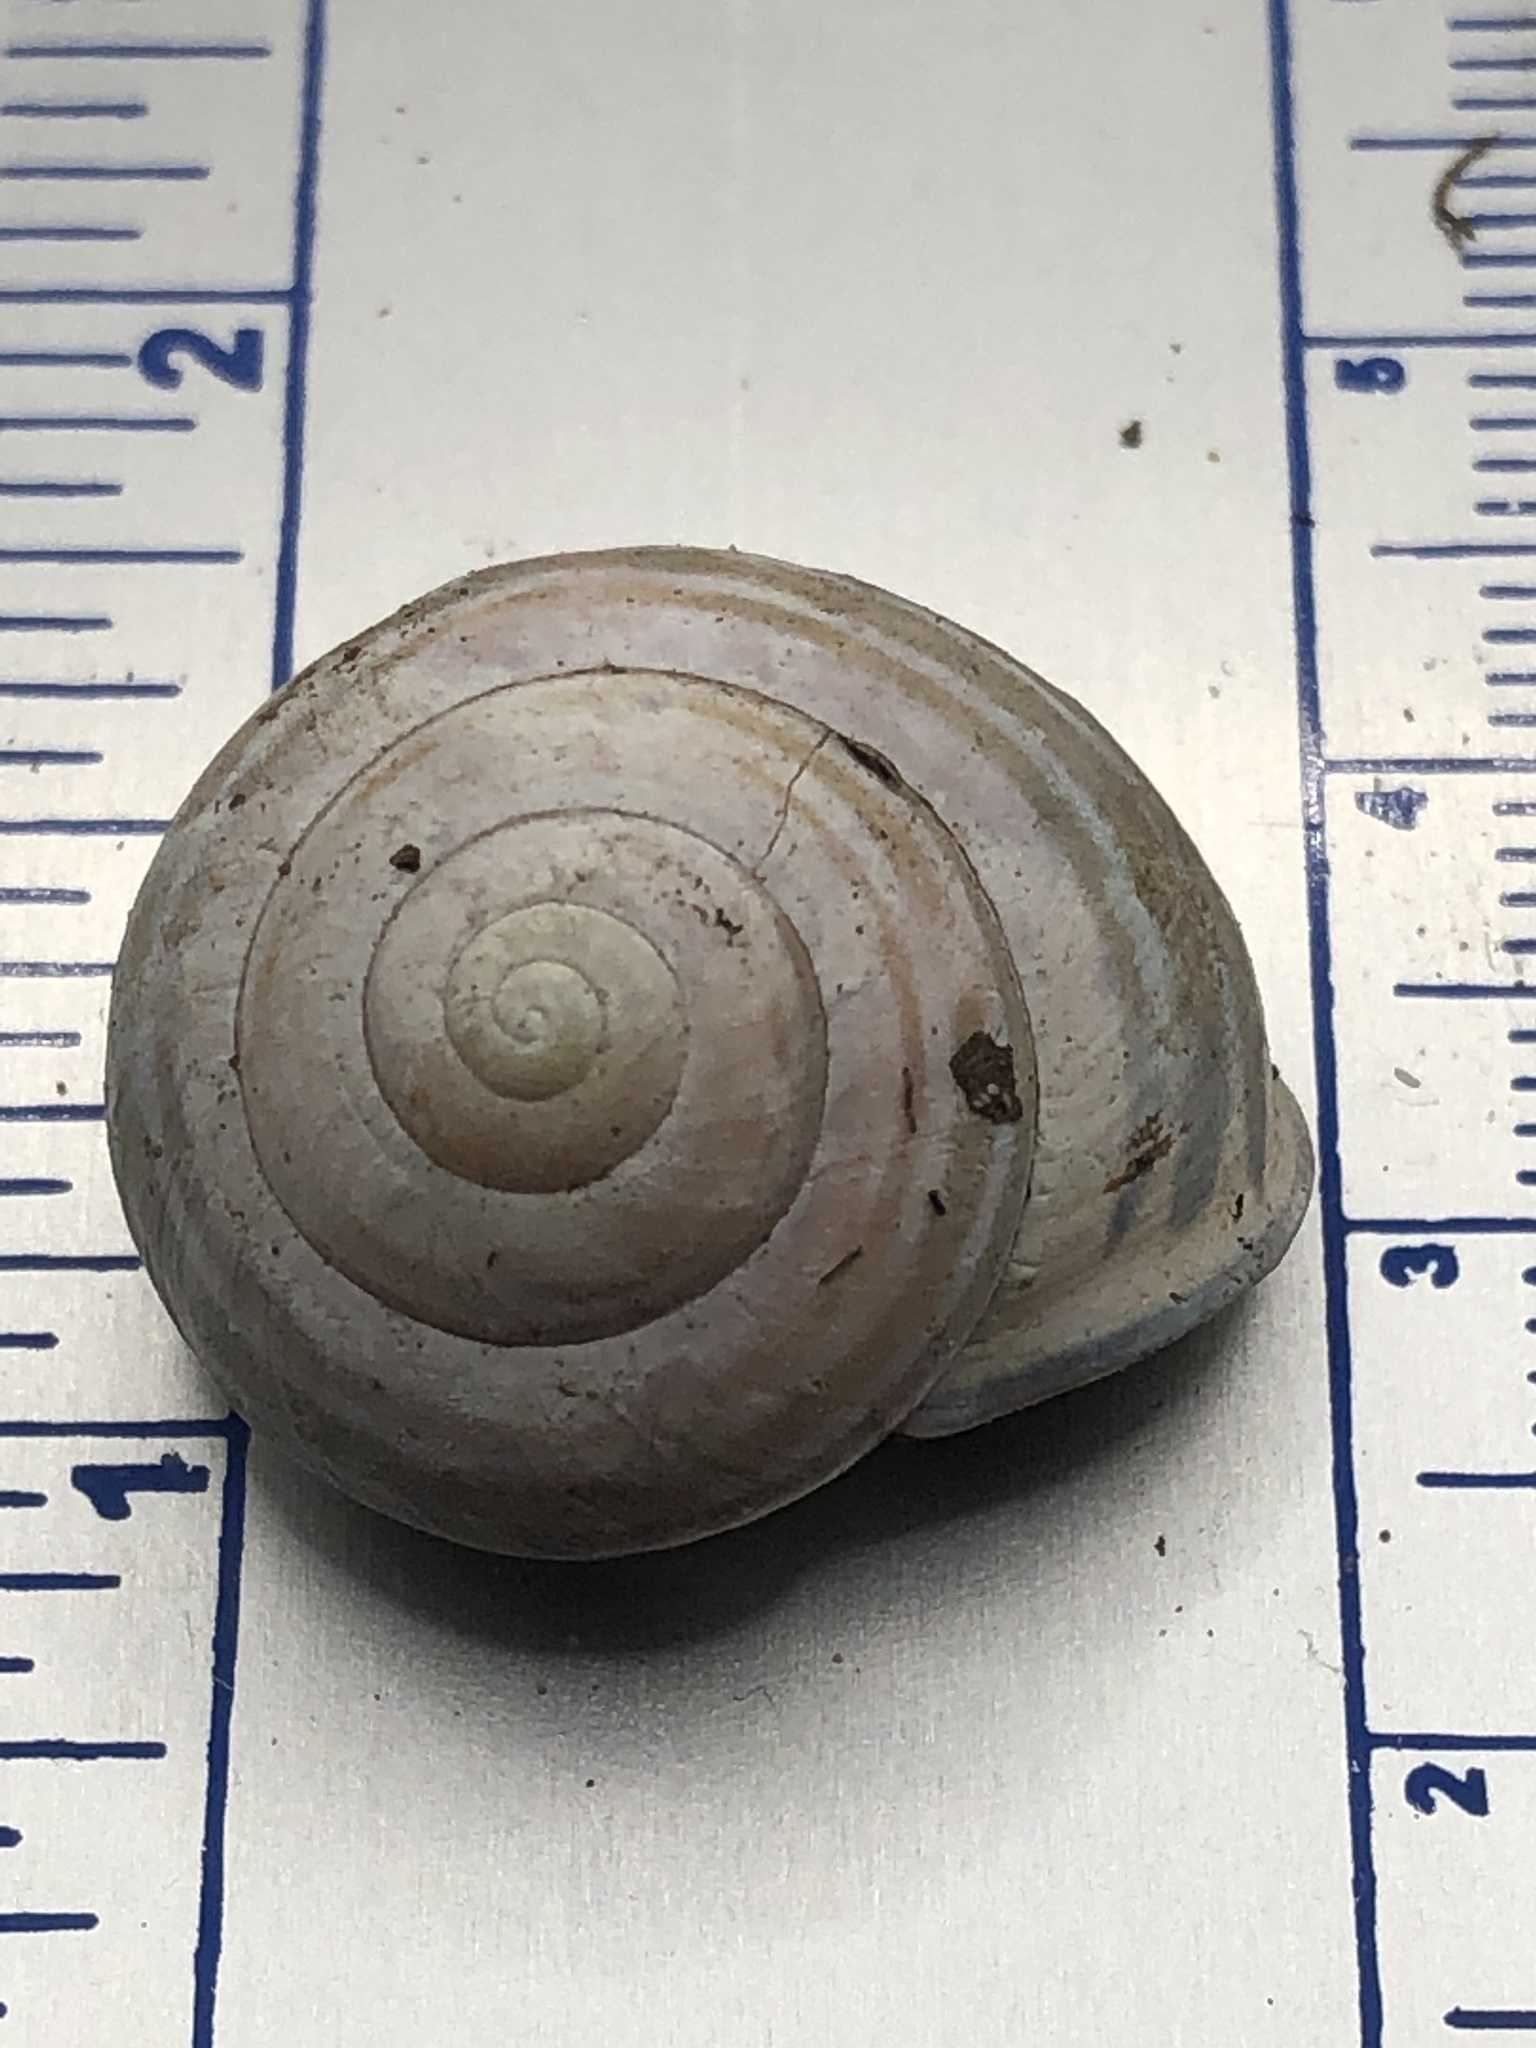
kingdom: Animalia
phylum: Mollusca
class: Gastropoda
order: Stylommatophora
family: Helicidae
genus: Cepaea
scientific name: Cepaea nemoralis
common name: Grovesnail
